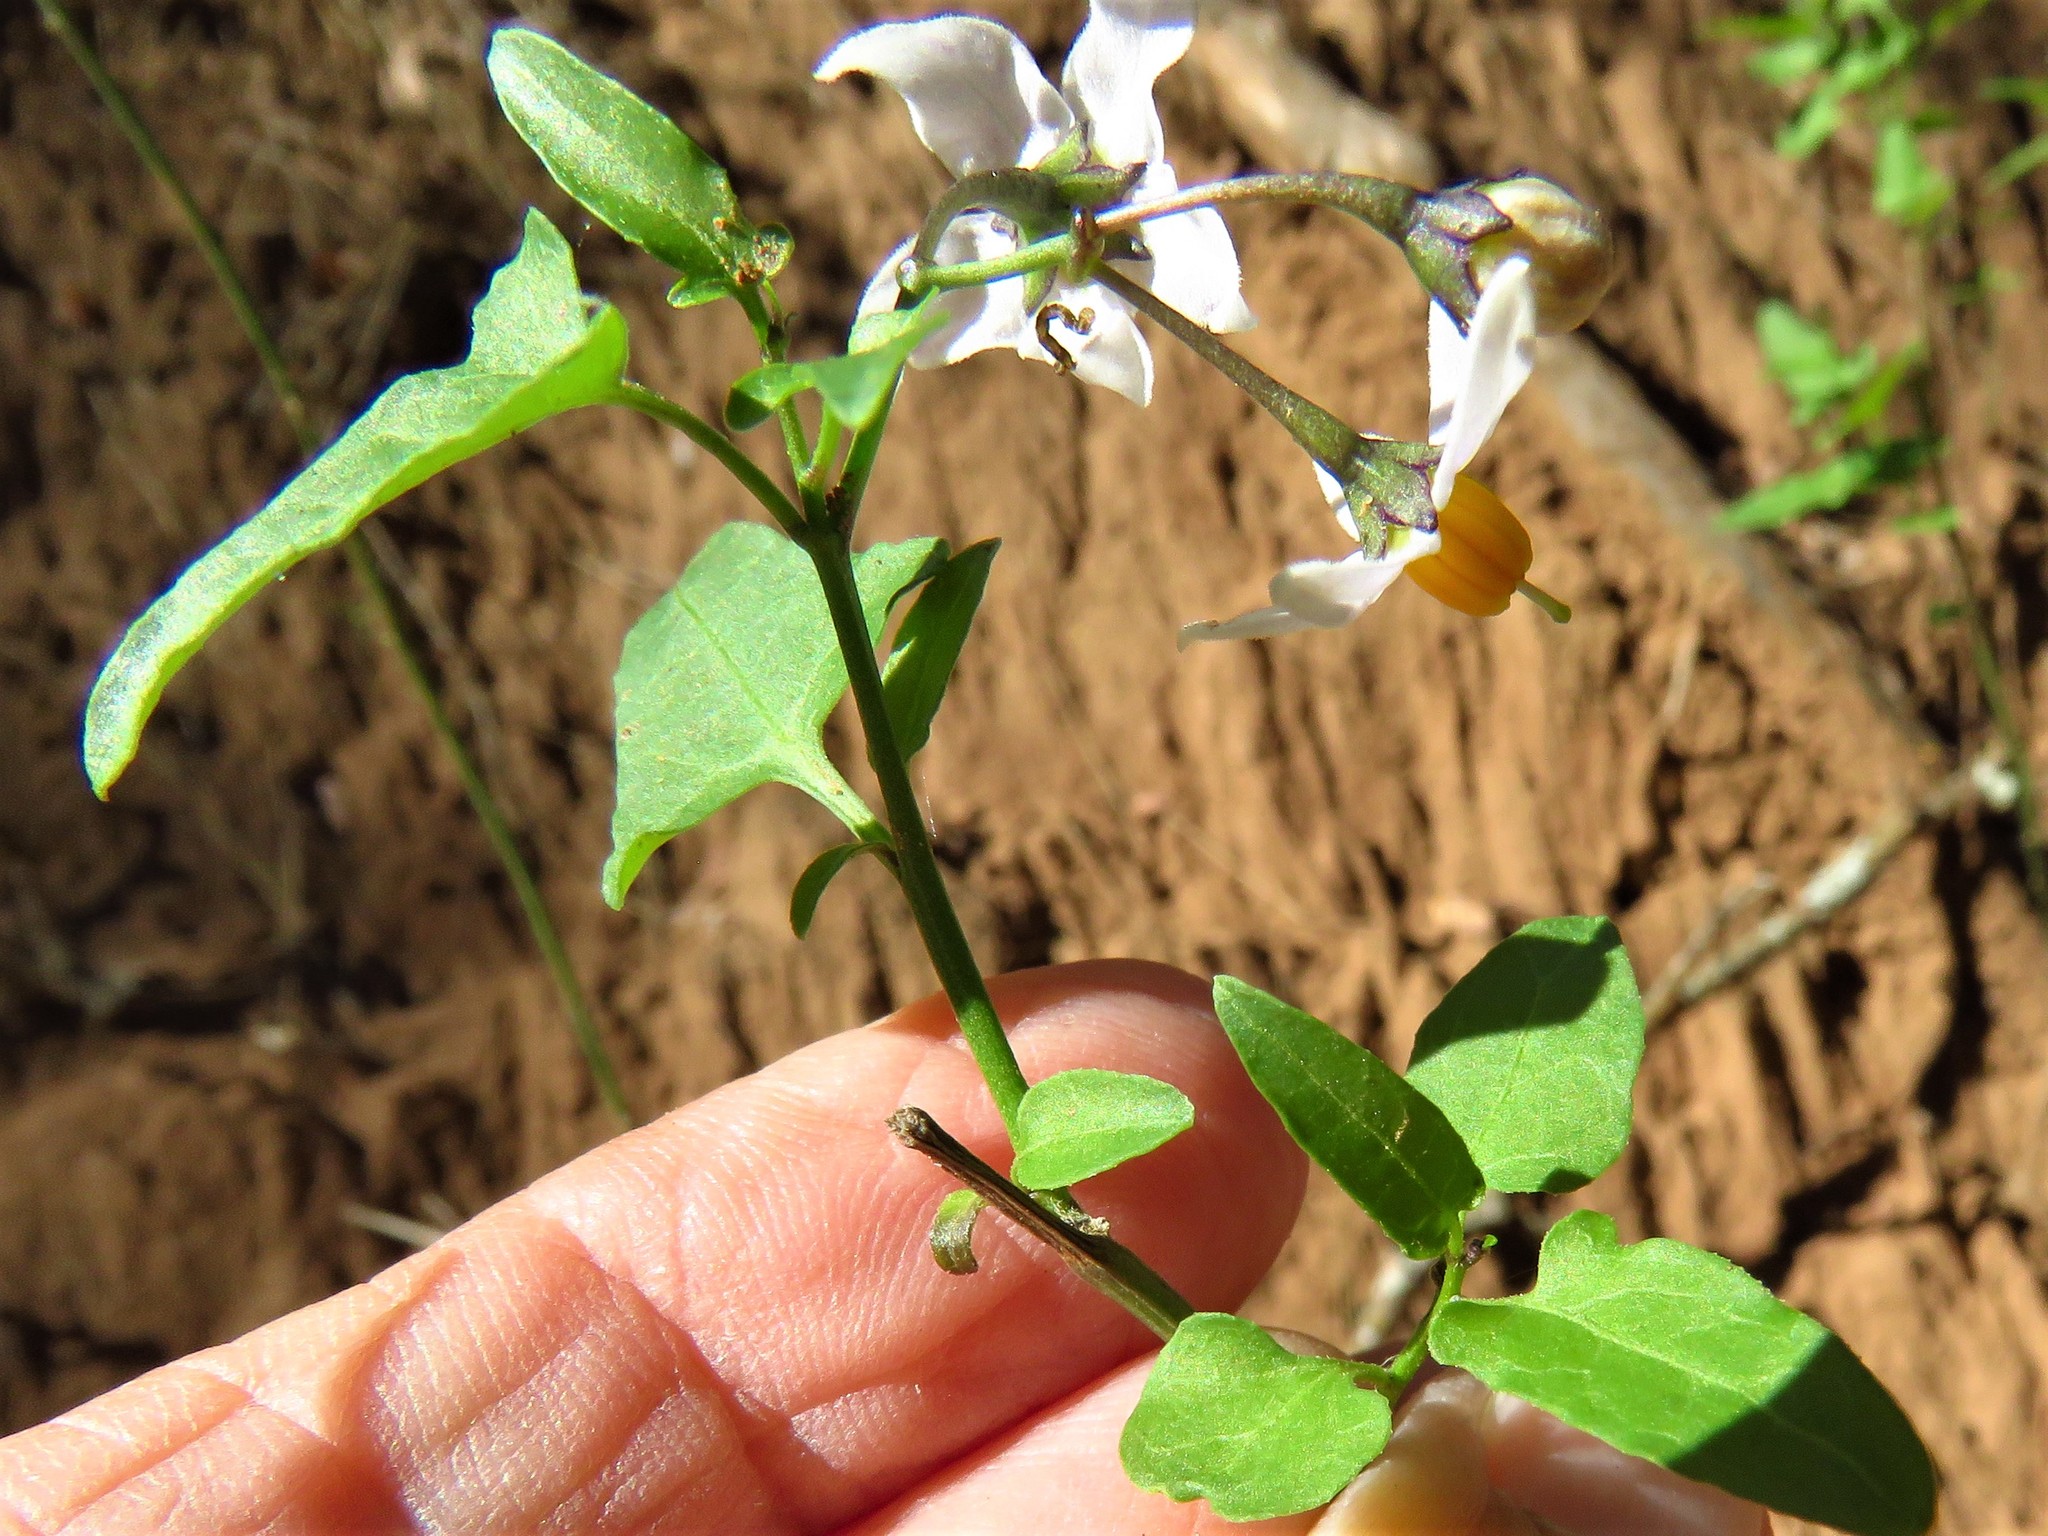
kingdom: Plantae
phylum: Tracheophyta
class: Magnoliopsida
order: Solanales
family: Solanaceae
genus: Solanum
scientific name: Solanum triquetrum
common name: Texas nightshade
